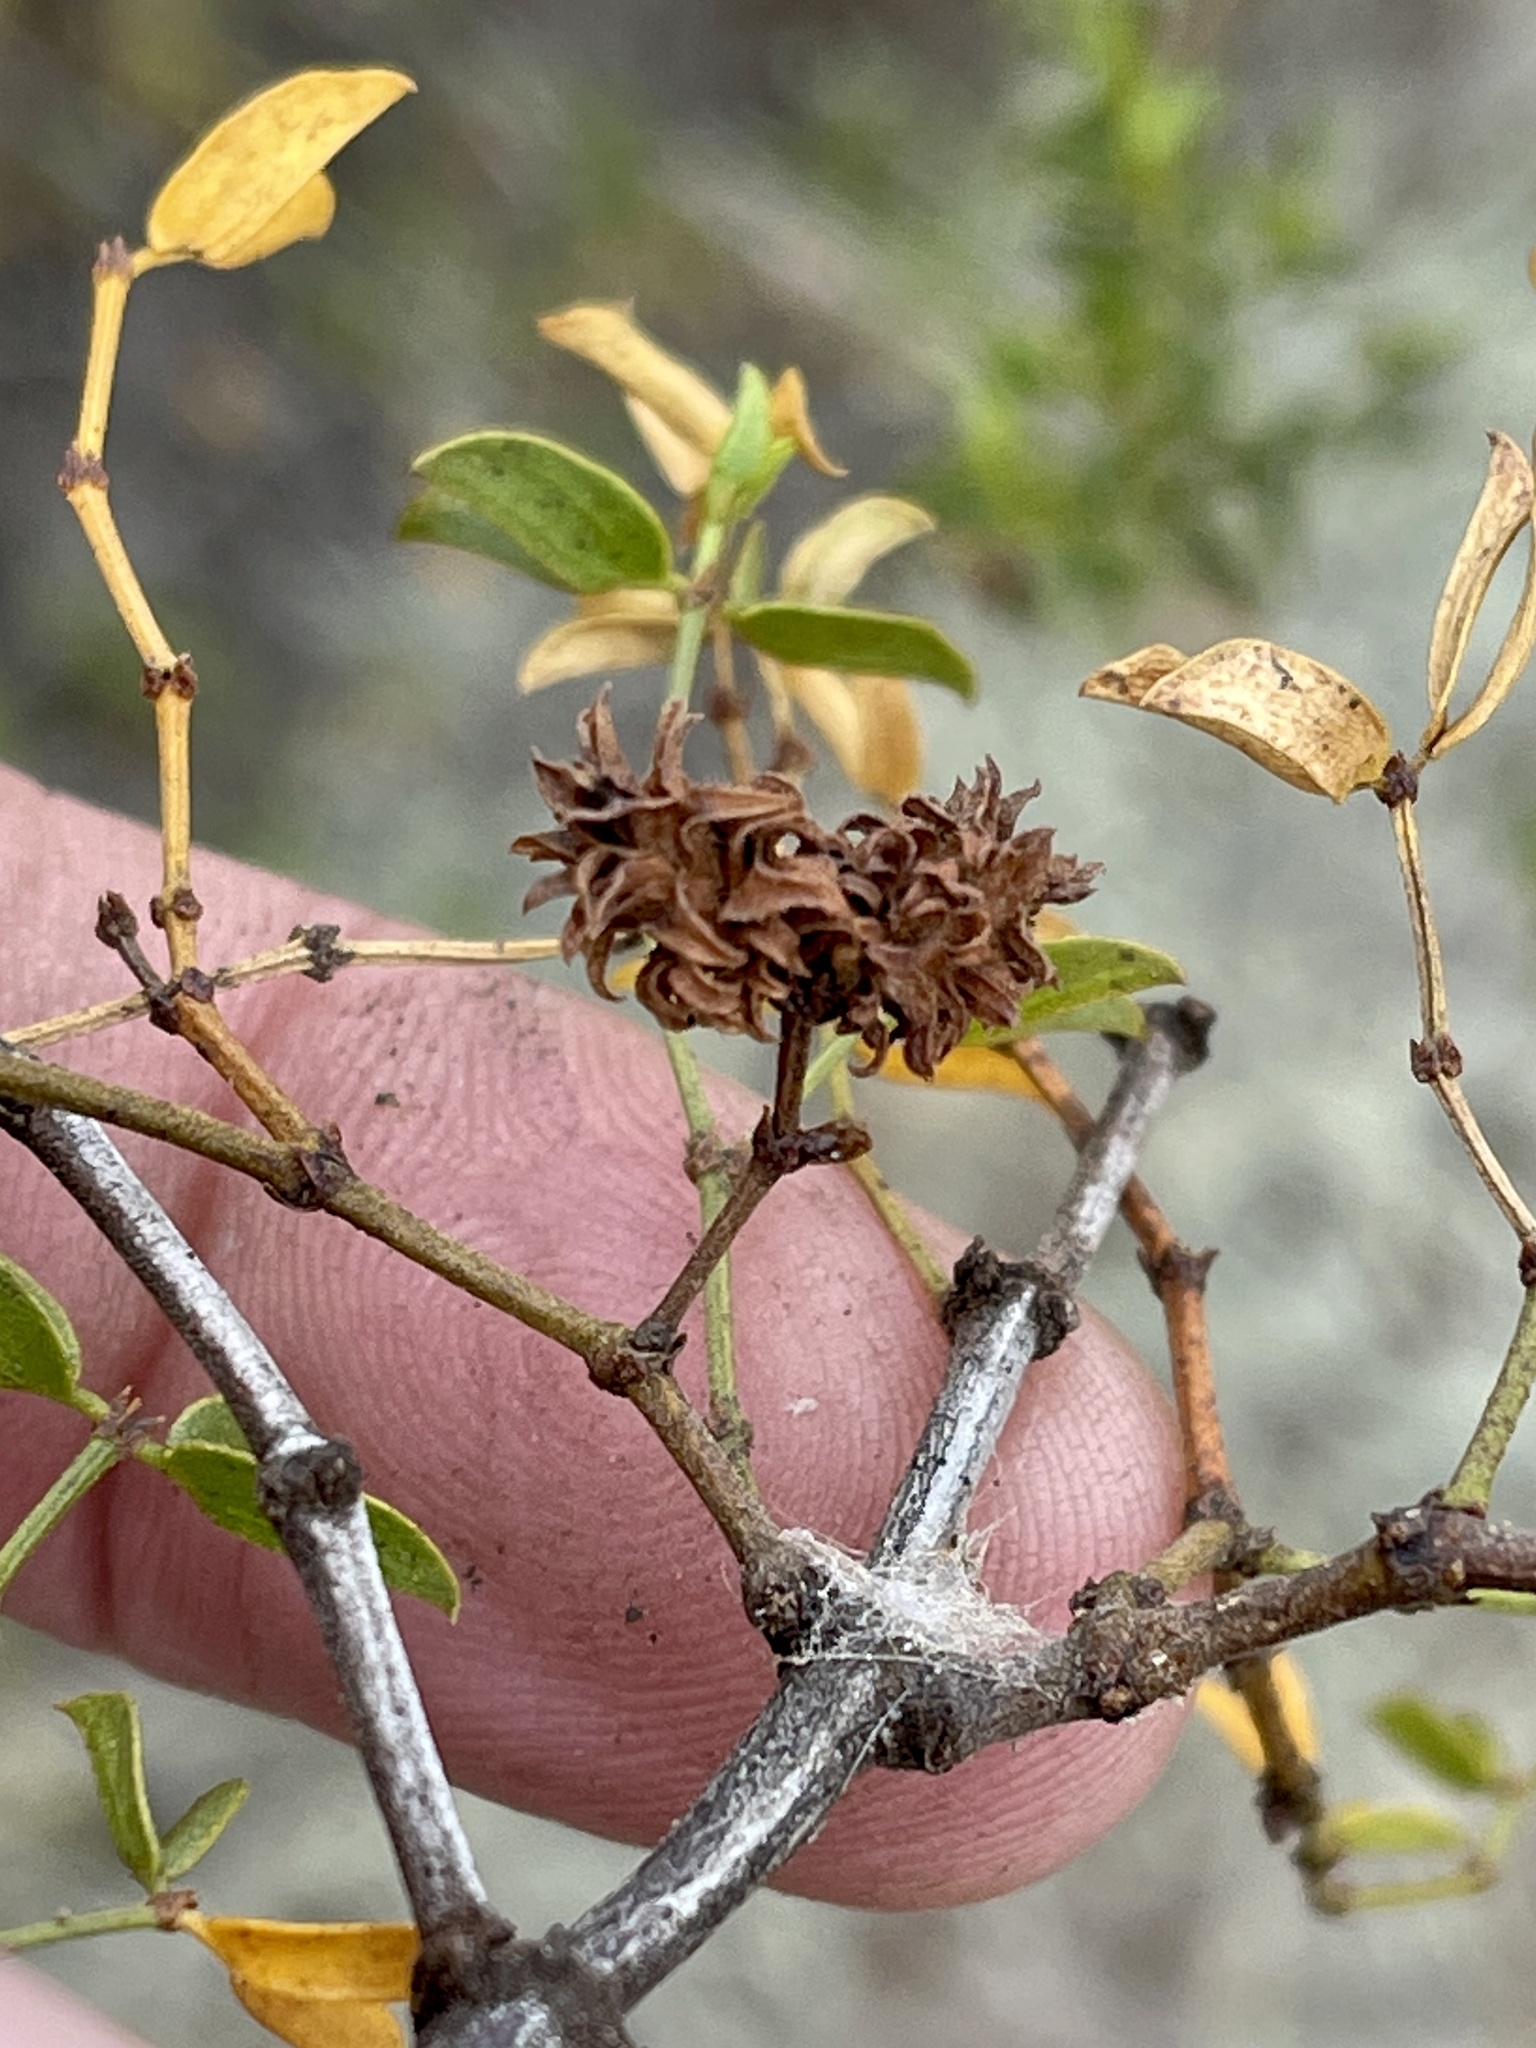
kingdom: Animalia
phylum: Arthropoda
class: Insecta
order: Diptera
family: Cecidomyiidae
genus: Asphondylia
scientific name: Asphondylia rosetta
